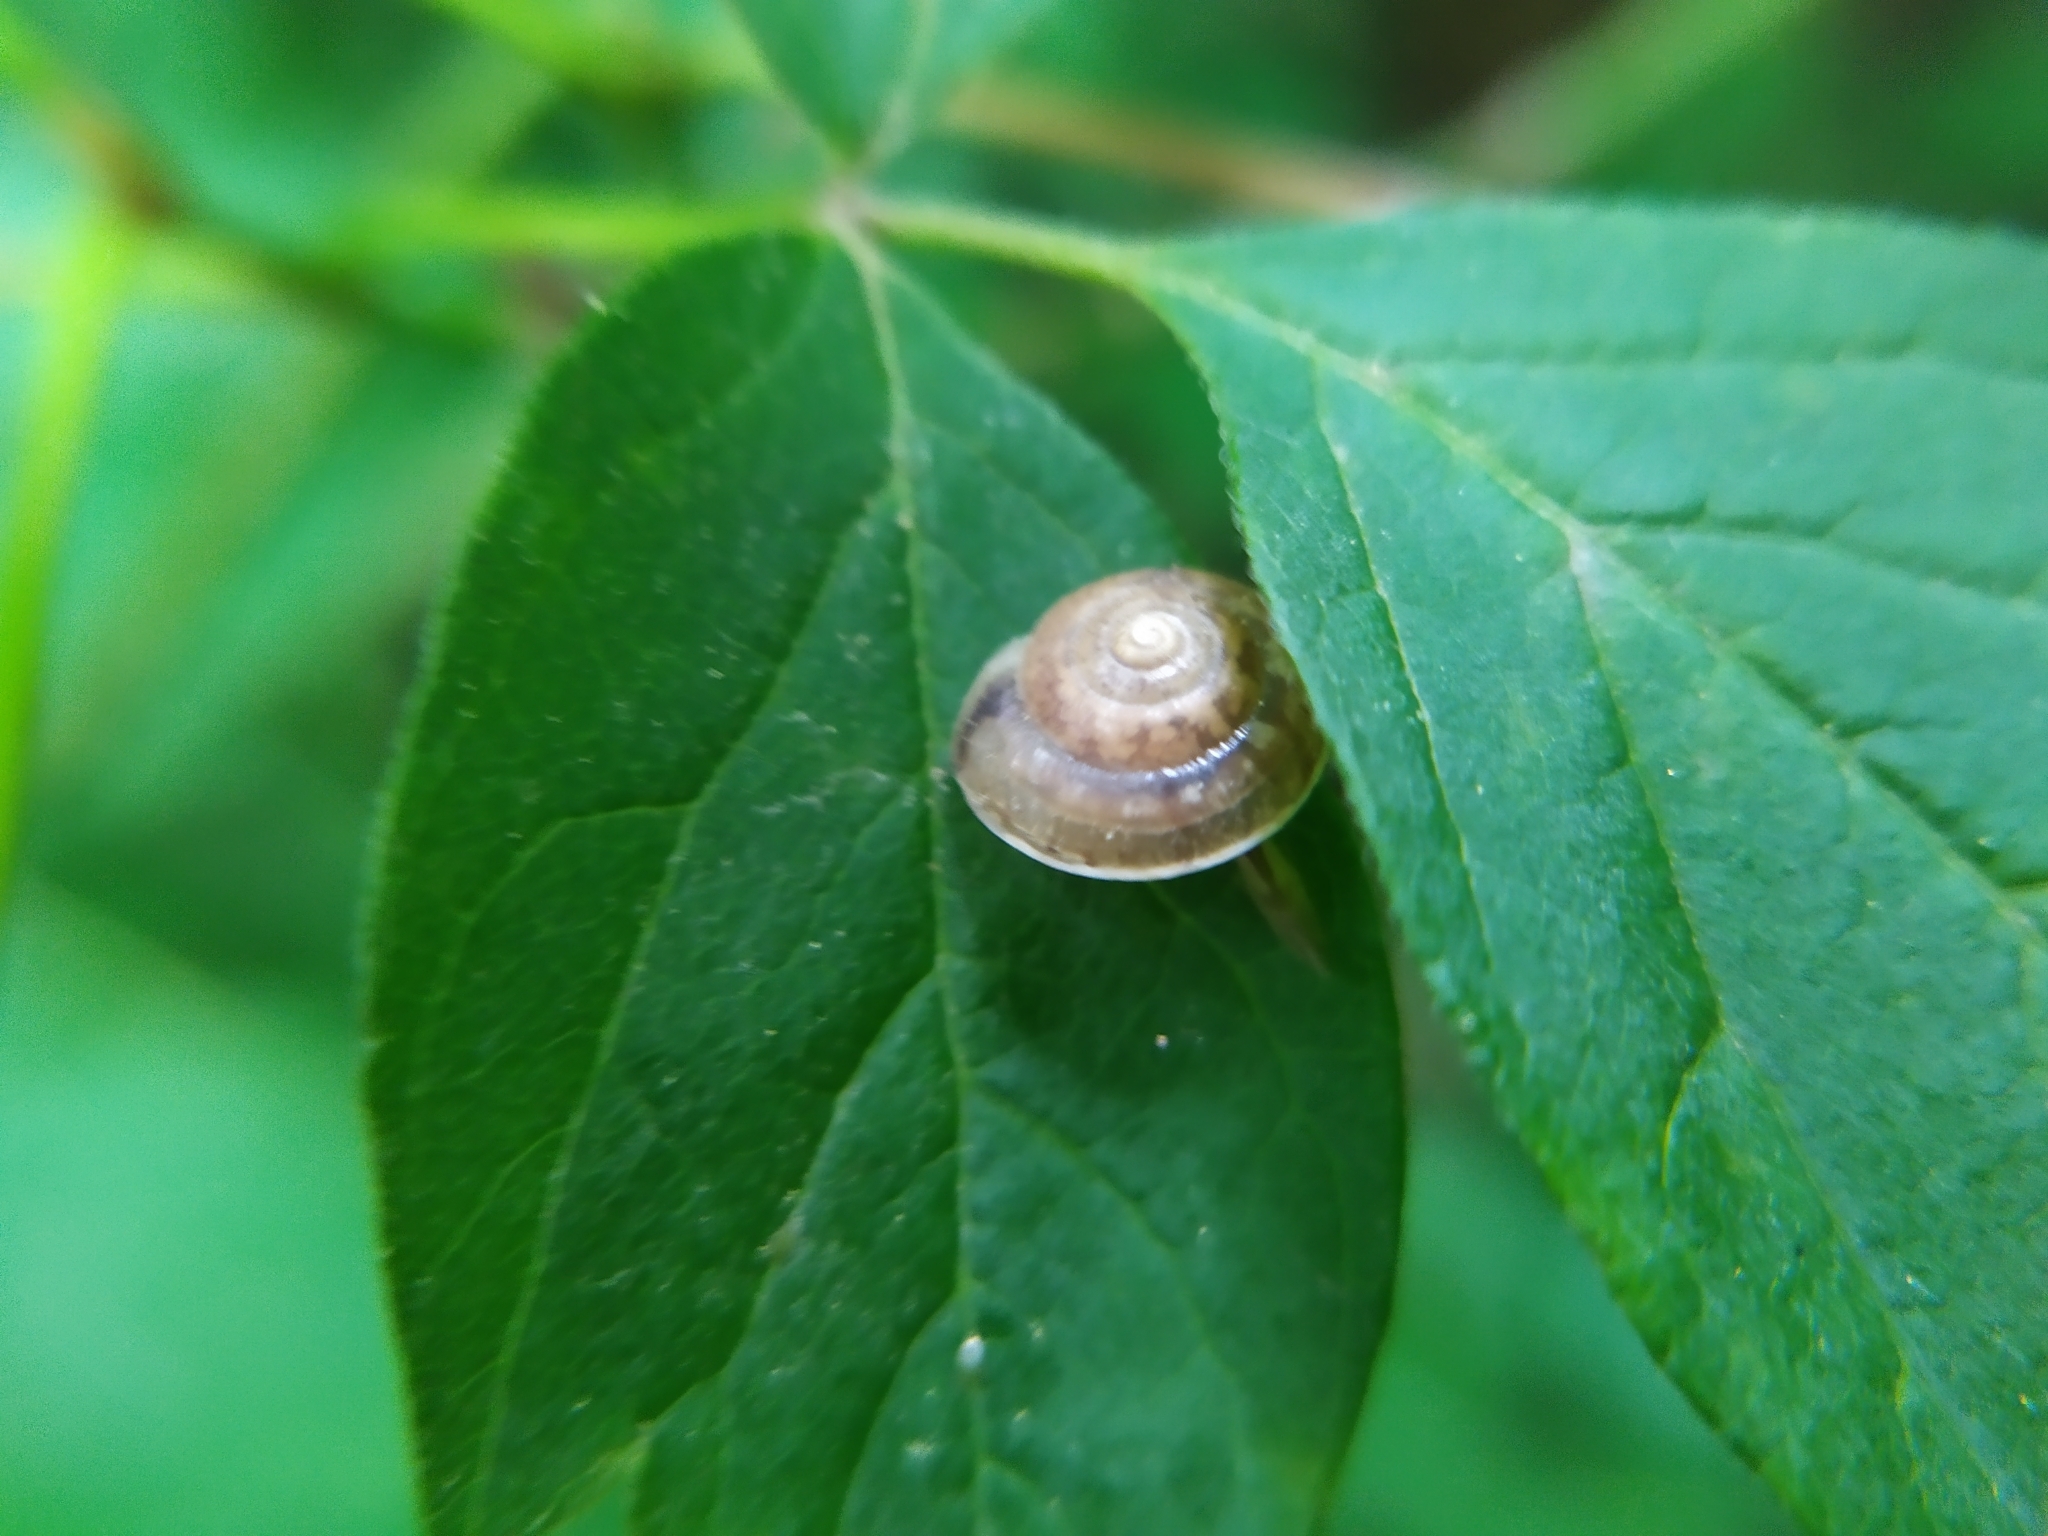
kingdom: Animalia
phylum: Mollusca
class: Gastropoda
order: Stylommatophora
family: Hygromiidae
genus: Hygromia
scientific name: Hygromia cinctella
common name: Girdled snail
